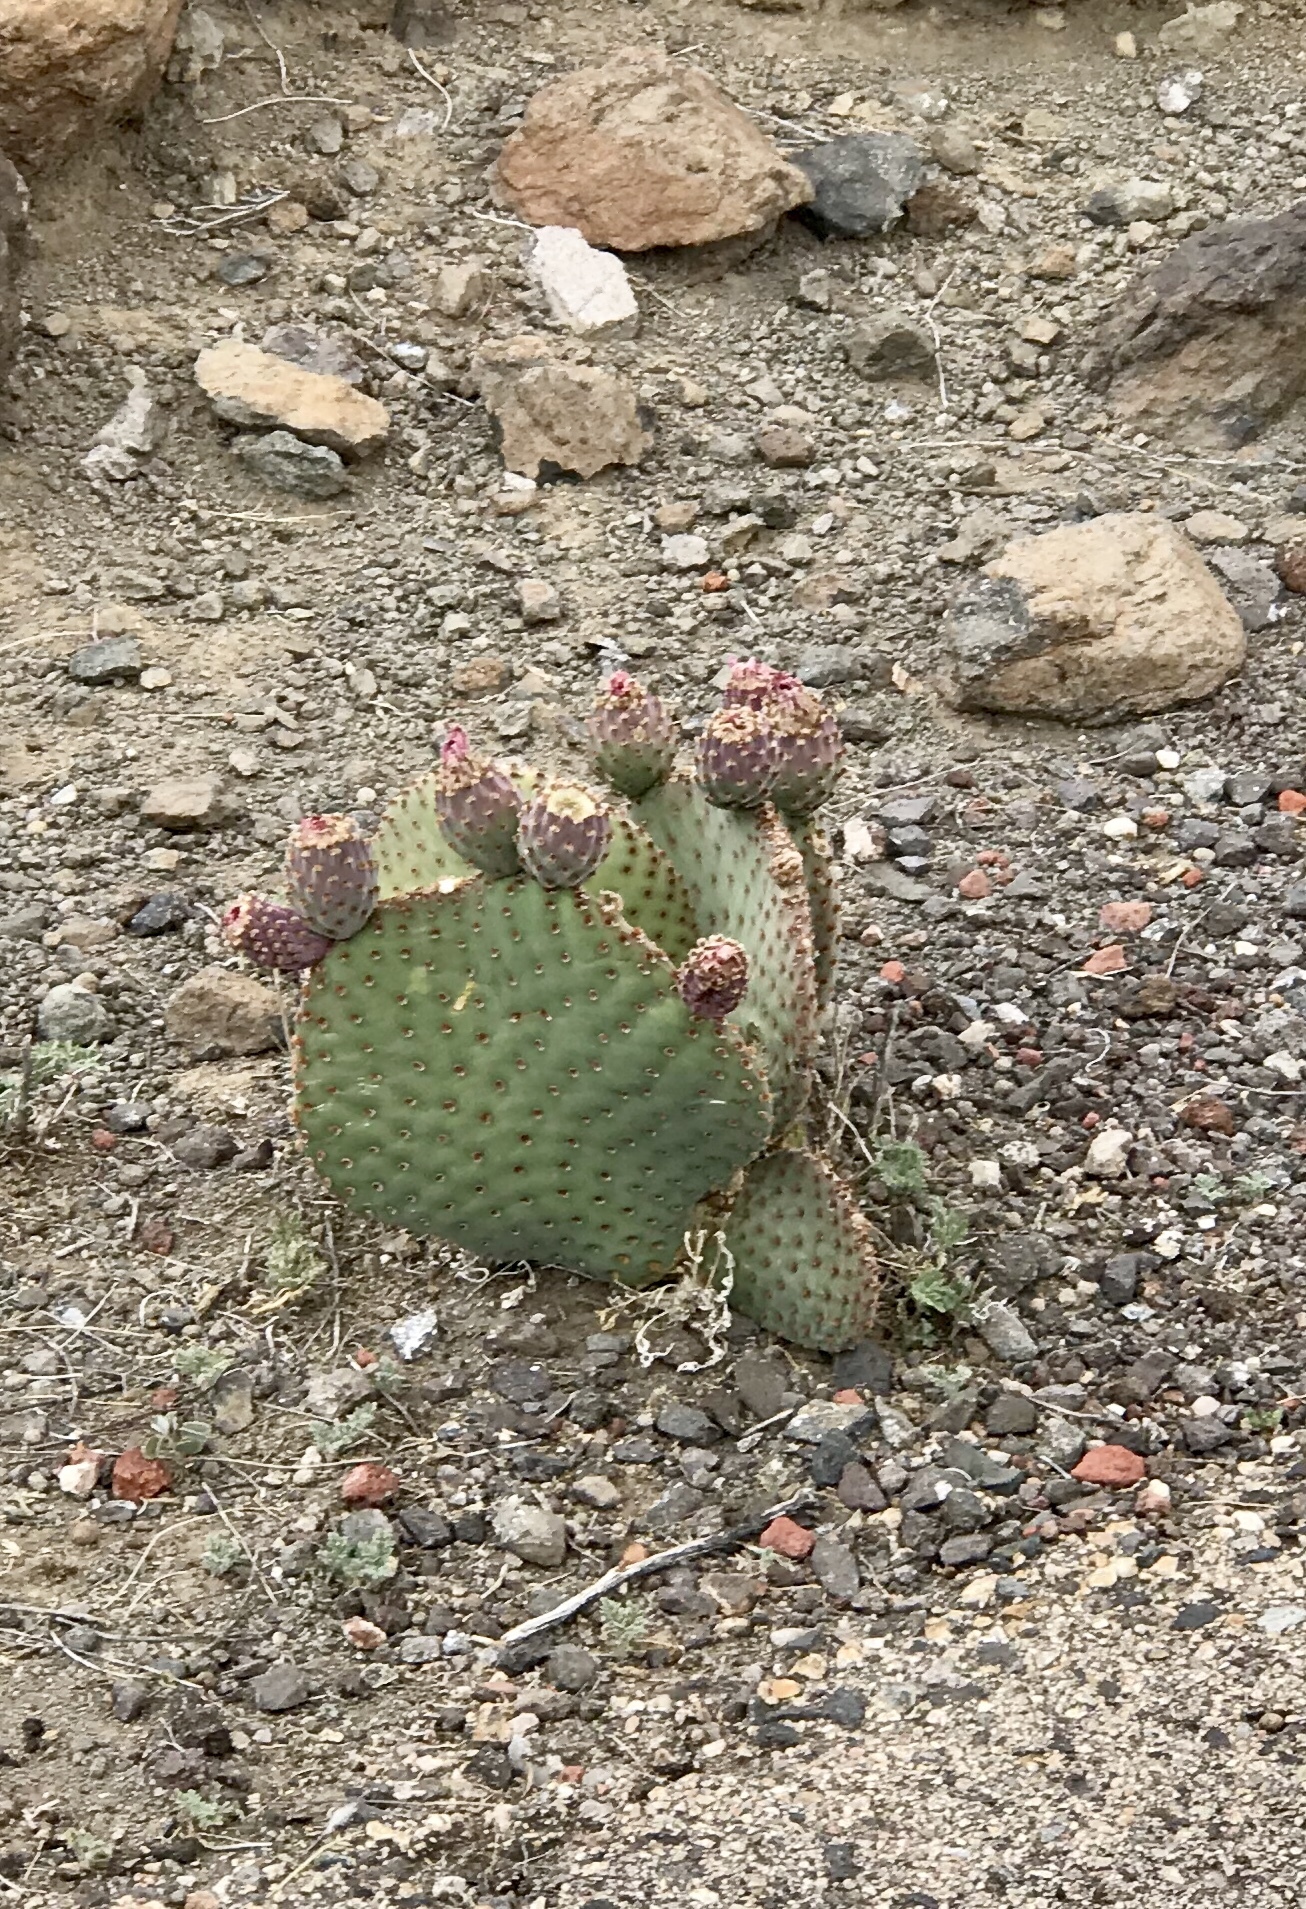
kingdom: Plantae
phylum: Tracheophyta
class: Magnoliopsida
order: Caryophyllales
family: Cactaceae
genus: Opuntia
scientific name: Opuntia basilaris
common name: Beavertail prickly-pear
